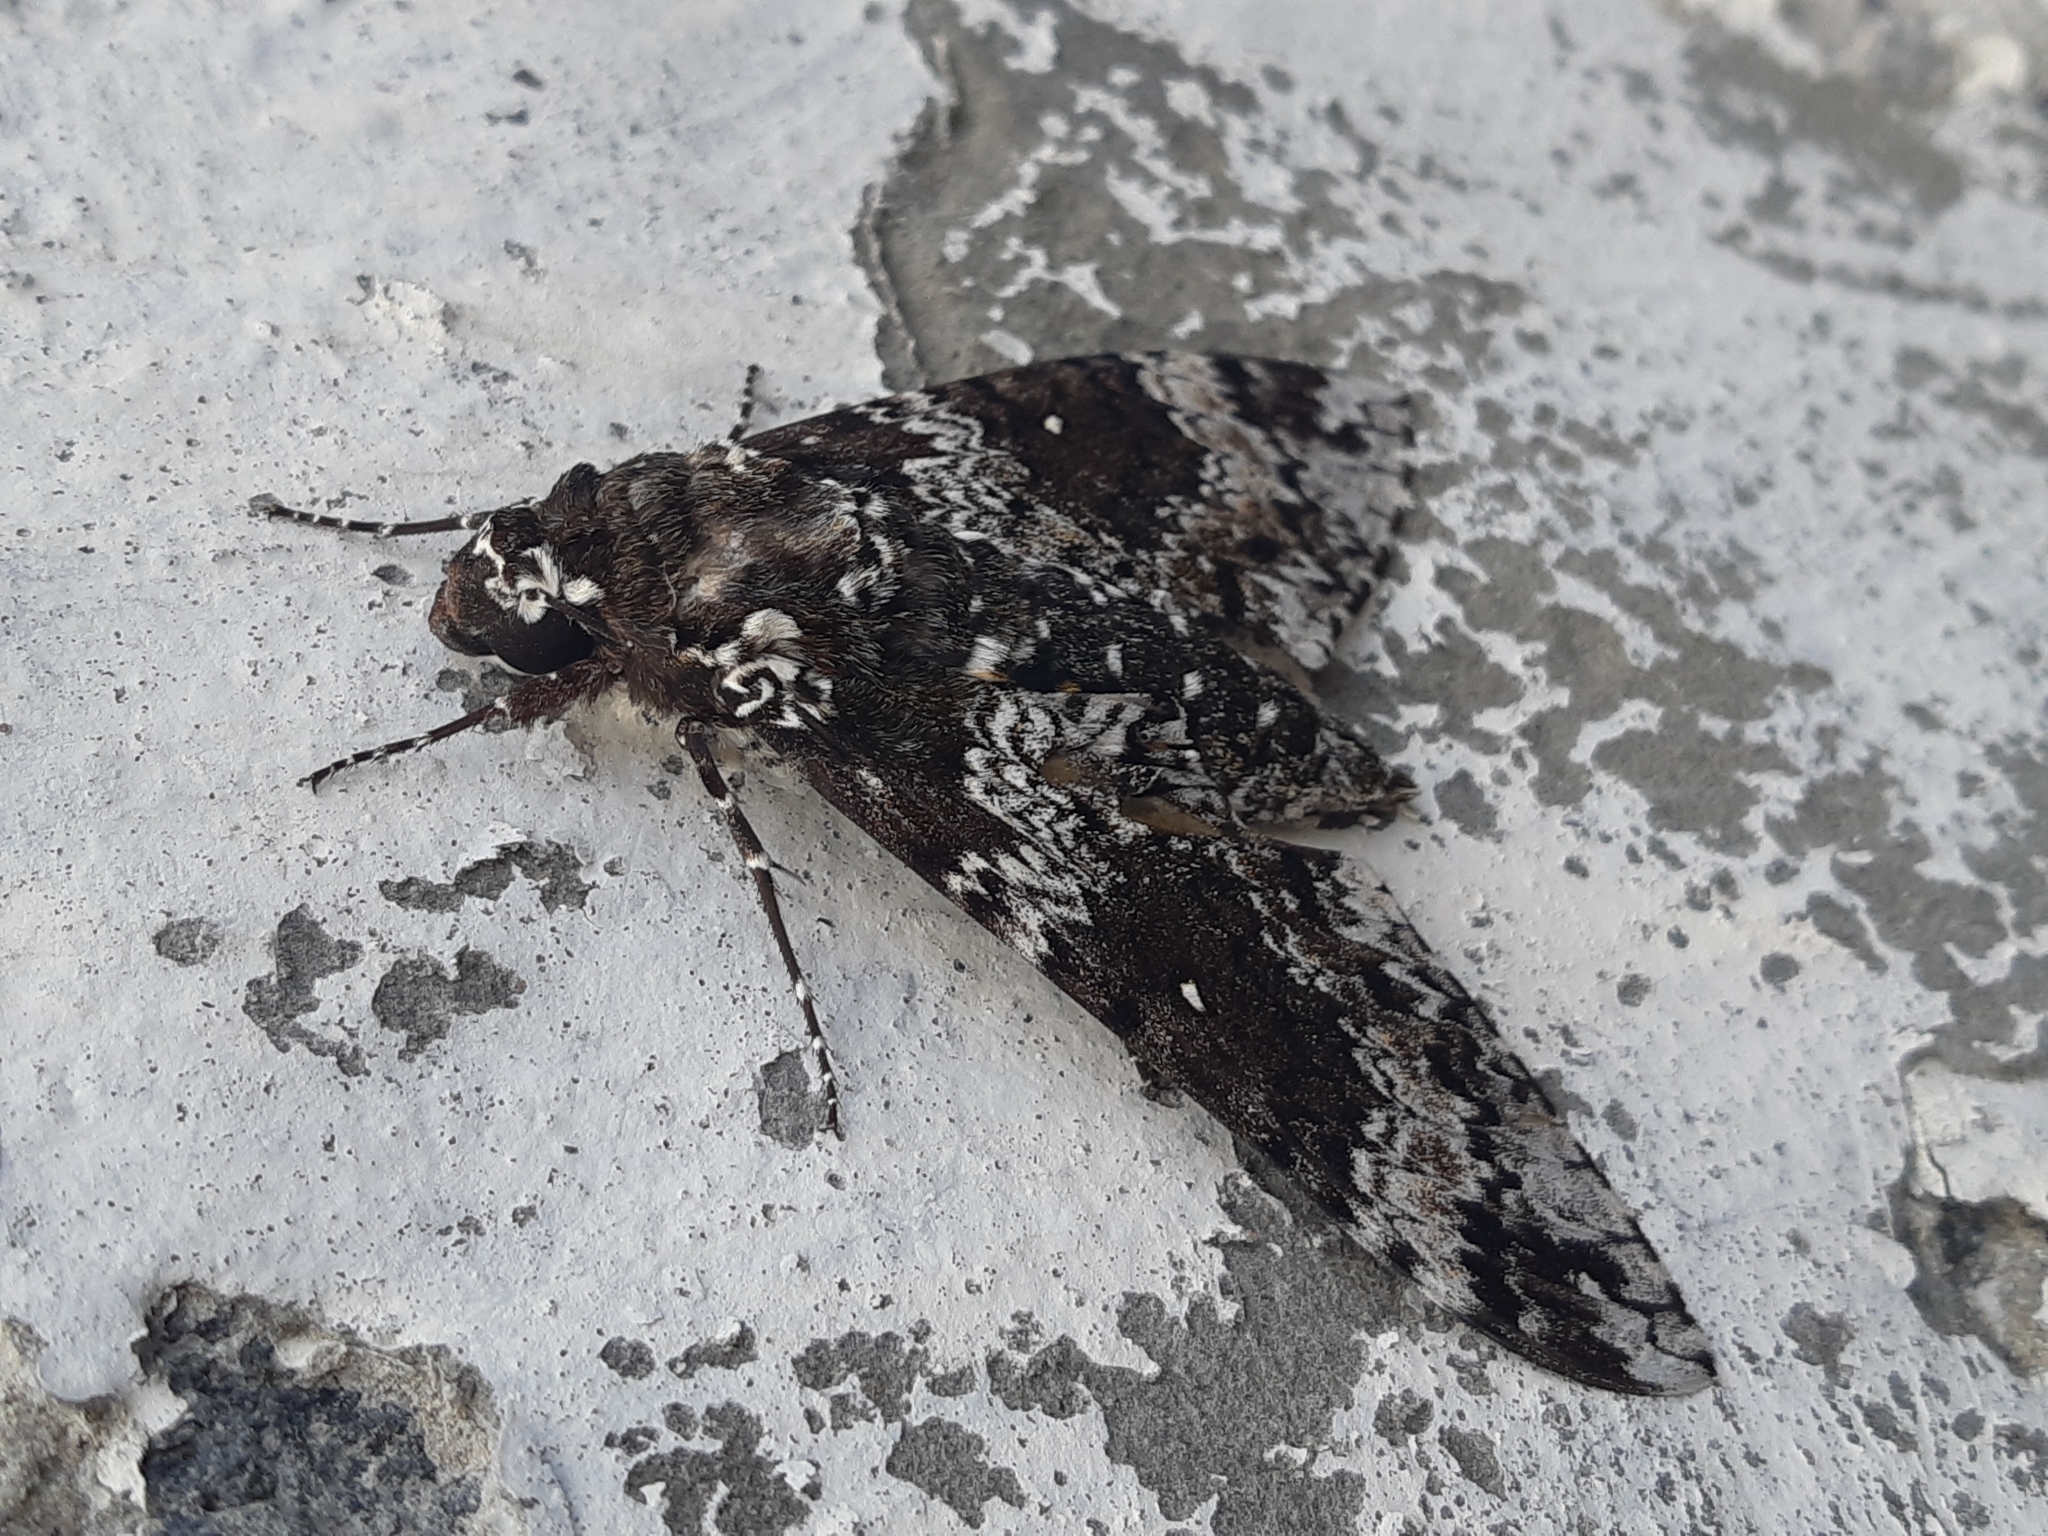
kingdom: Animalia
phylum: Arthropoda
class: Insecta
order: Lepidoptera
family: Sphingidae
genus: Manduca
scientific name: Manduca rustica
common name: Rustic sphinx
